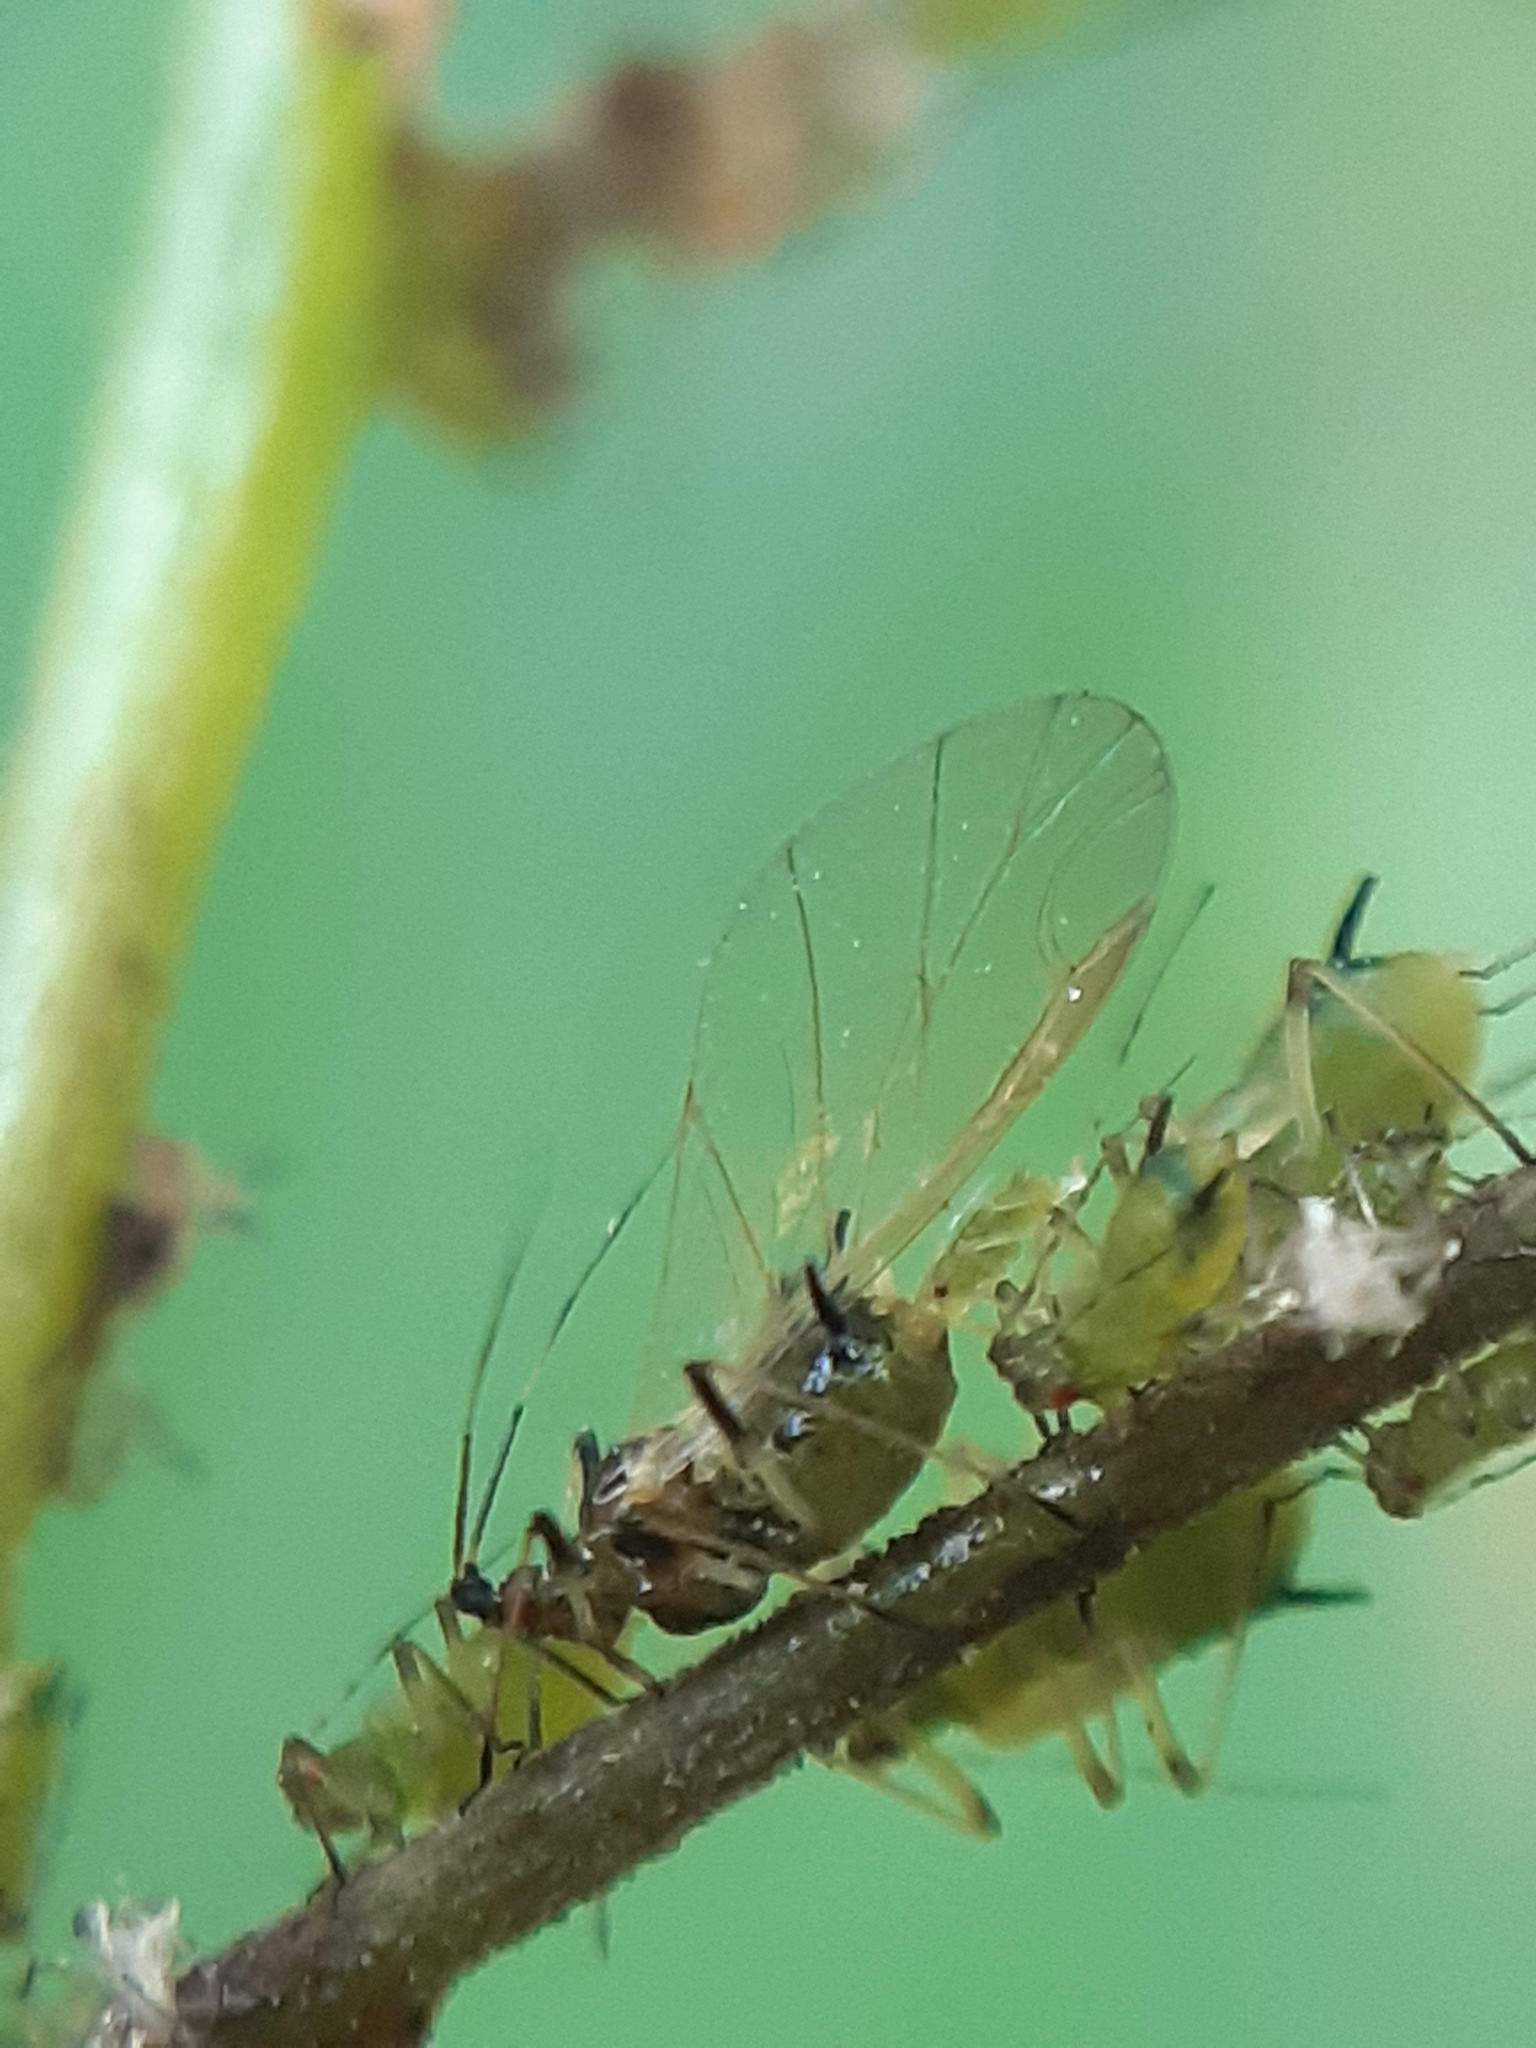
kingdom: Animalia
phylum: Arthropoda
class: Insecta
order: Hemiptera
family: Aphididae
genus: Impatientinum
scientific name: Impatientinum asiaticum
